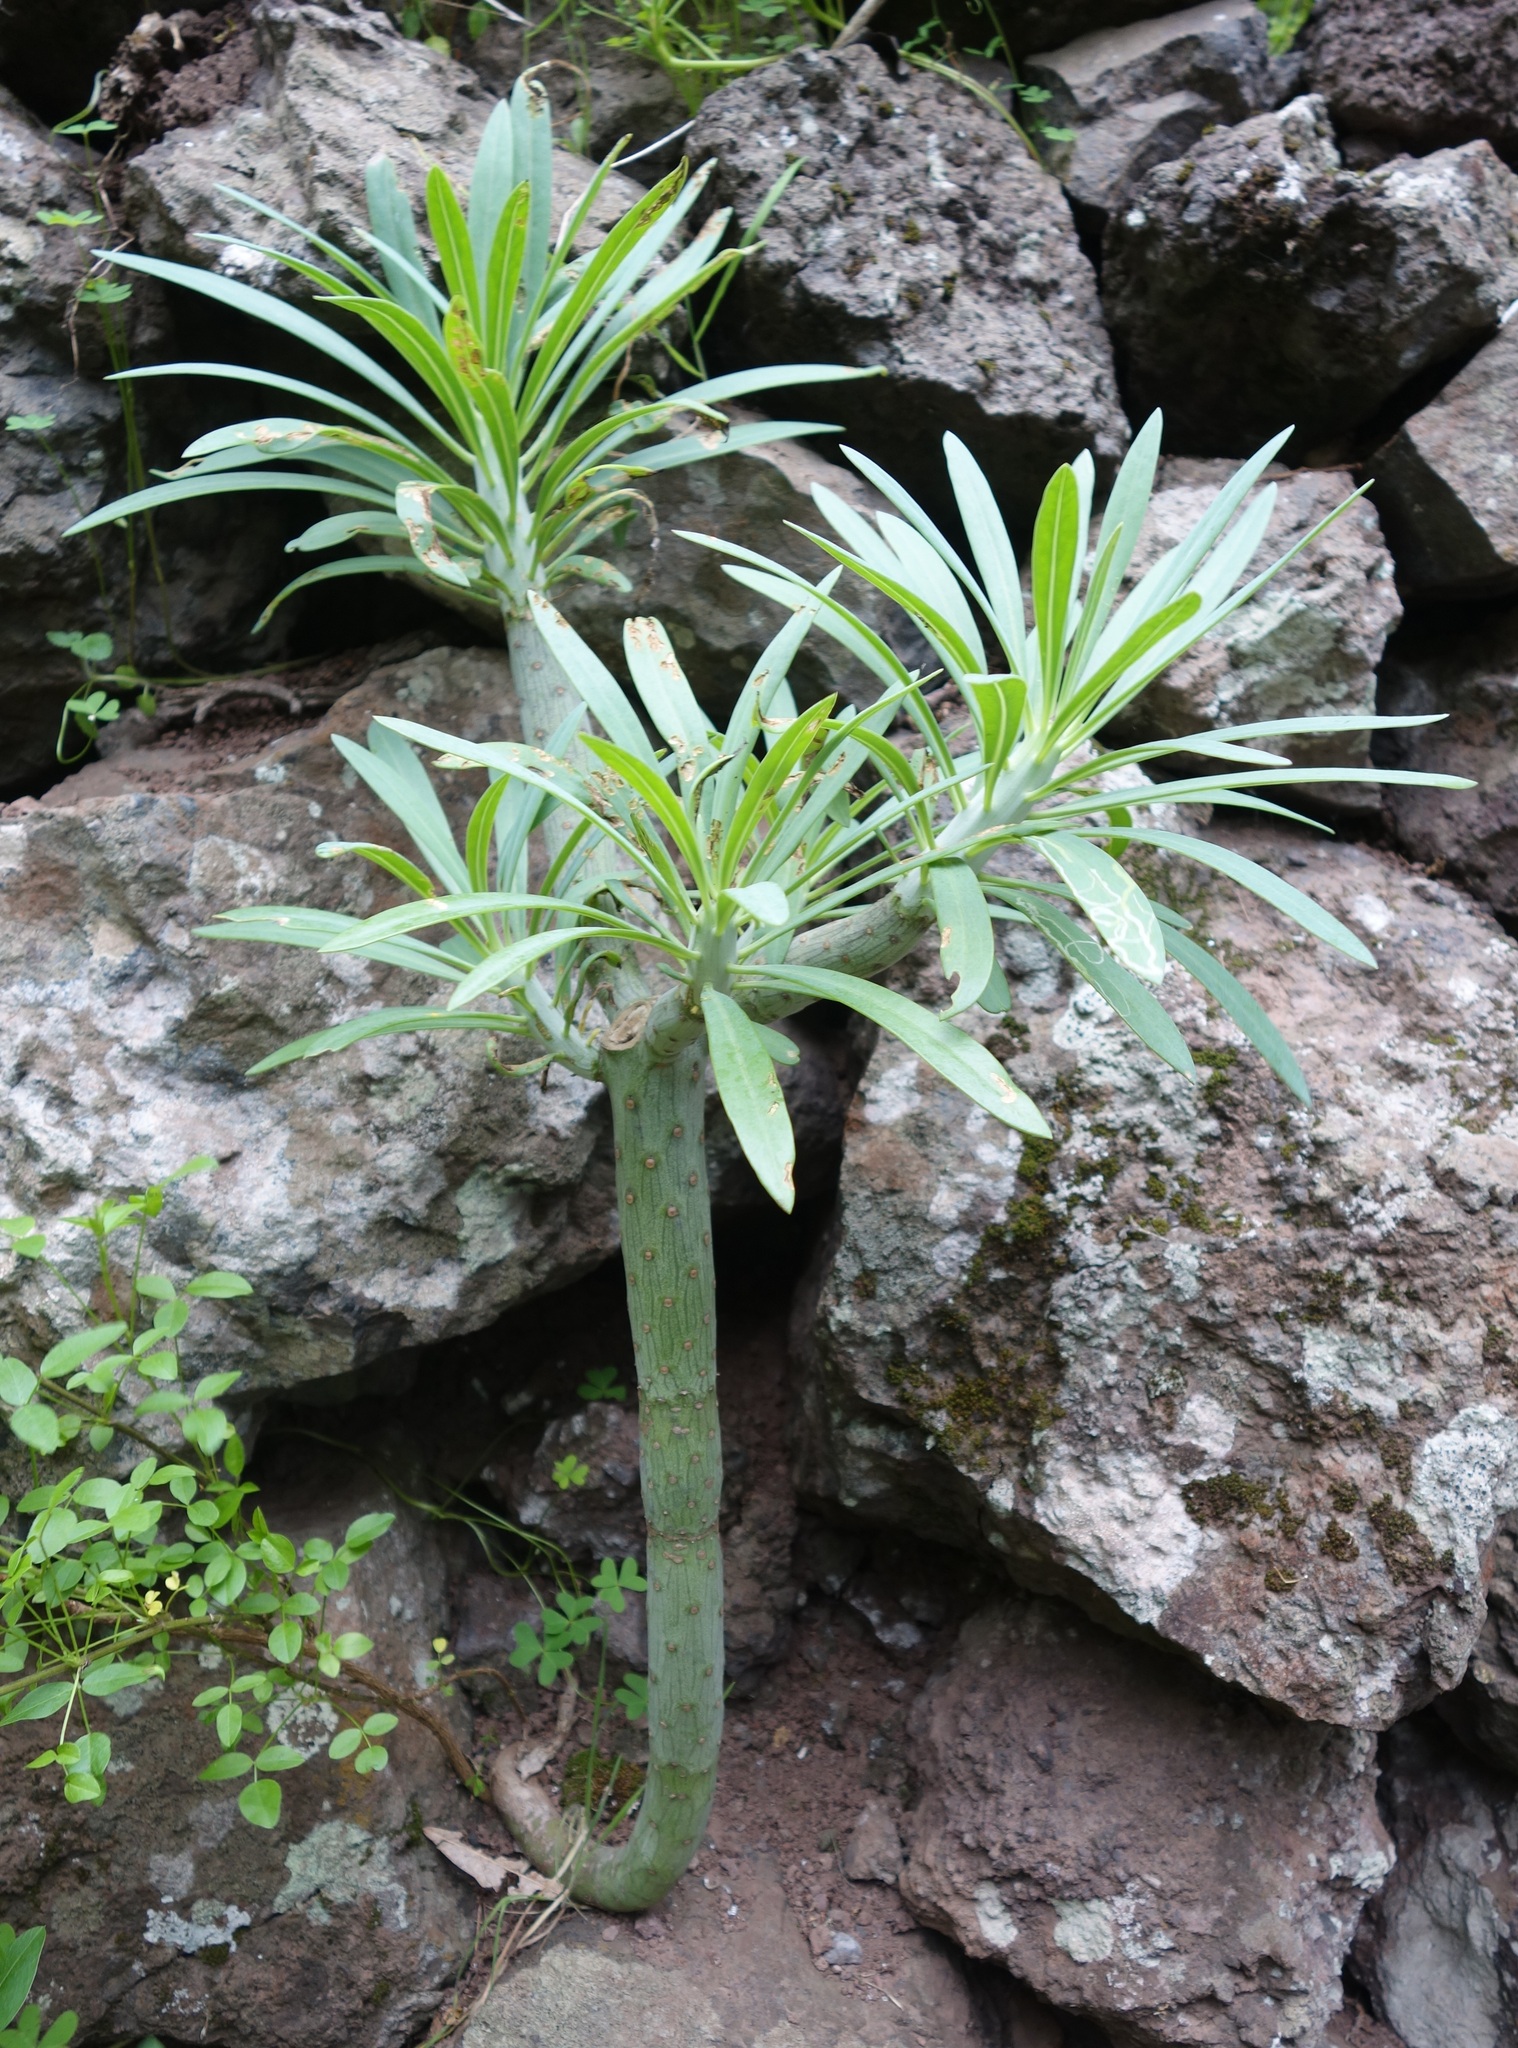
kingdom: Plantae
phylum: Tracheophyta
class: Magnoliopsida
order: Asterales
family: Asteraceae
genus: Kleinia
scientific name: Kleinia neriifolia
